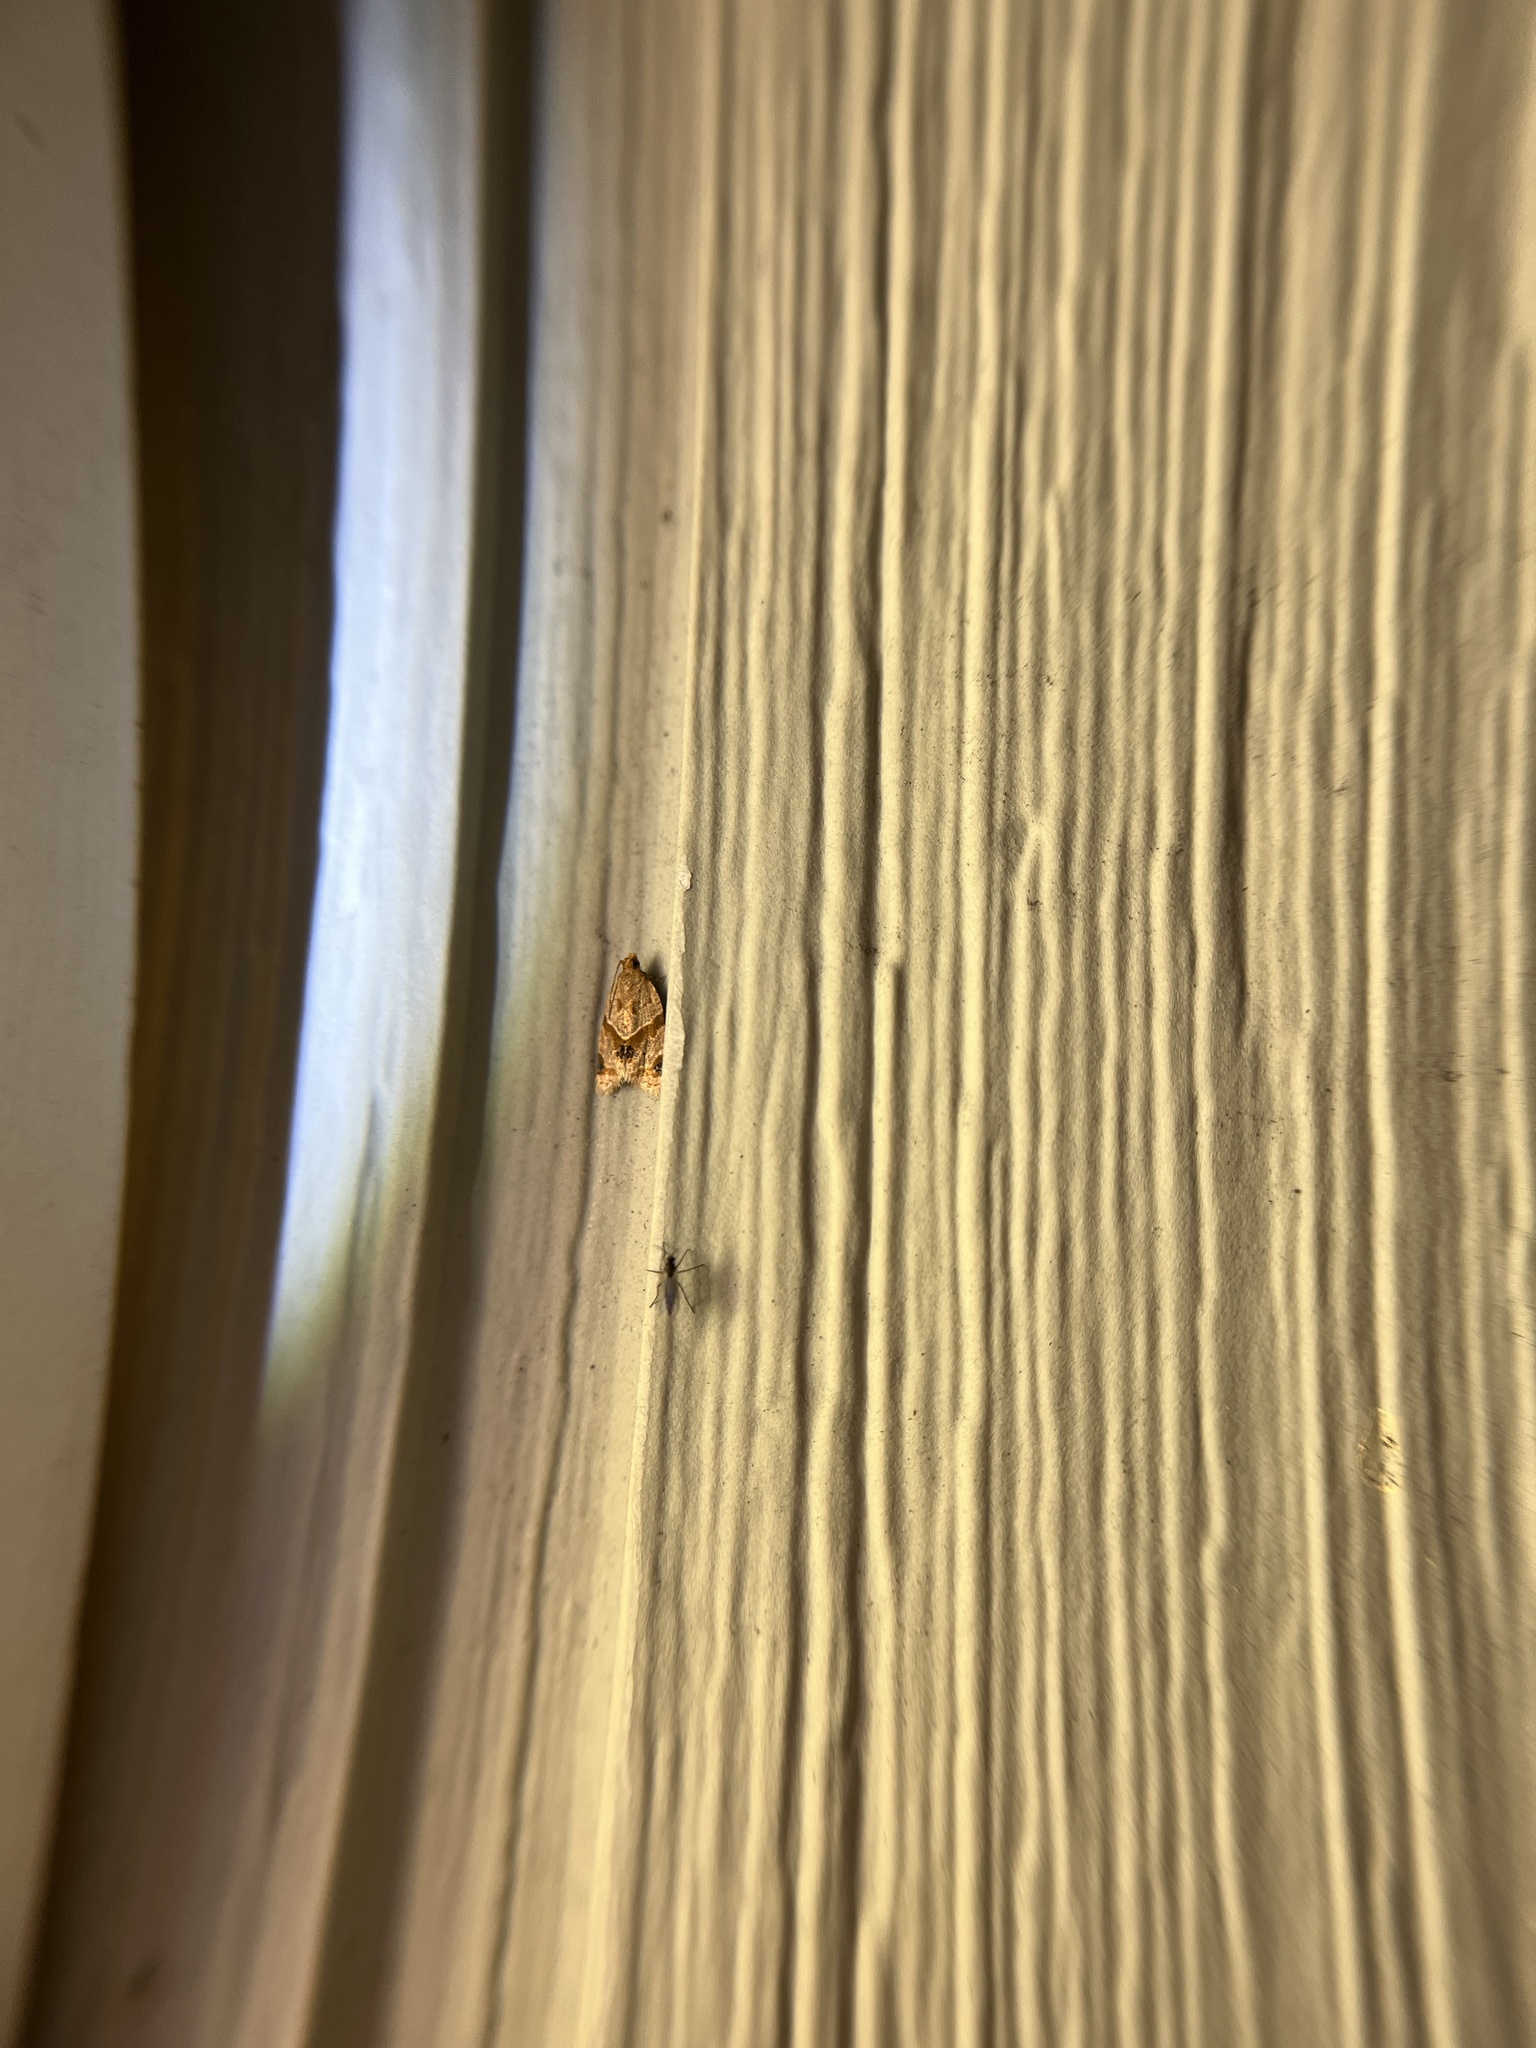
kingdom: Animalia
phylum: Arthropoda
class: Insecta
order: Lepidoptera
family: Tortricidae
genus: Clepsis
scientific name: Clepsis peritana
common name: Garden tortrix
